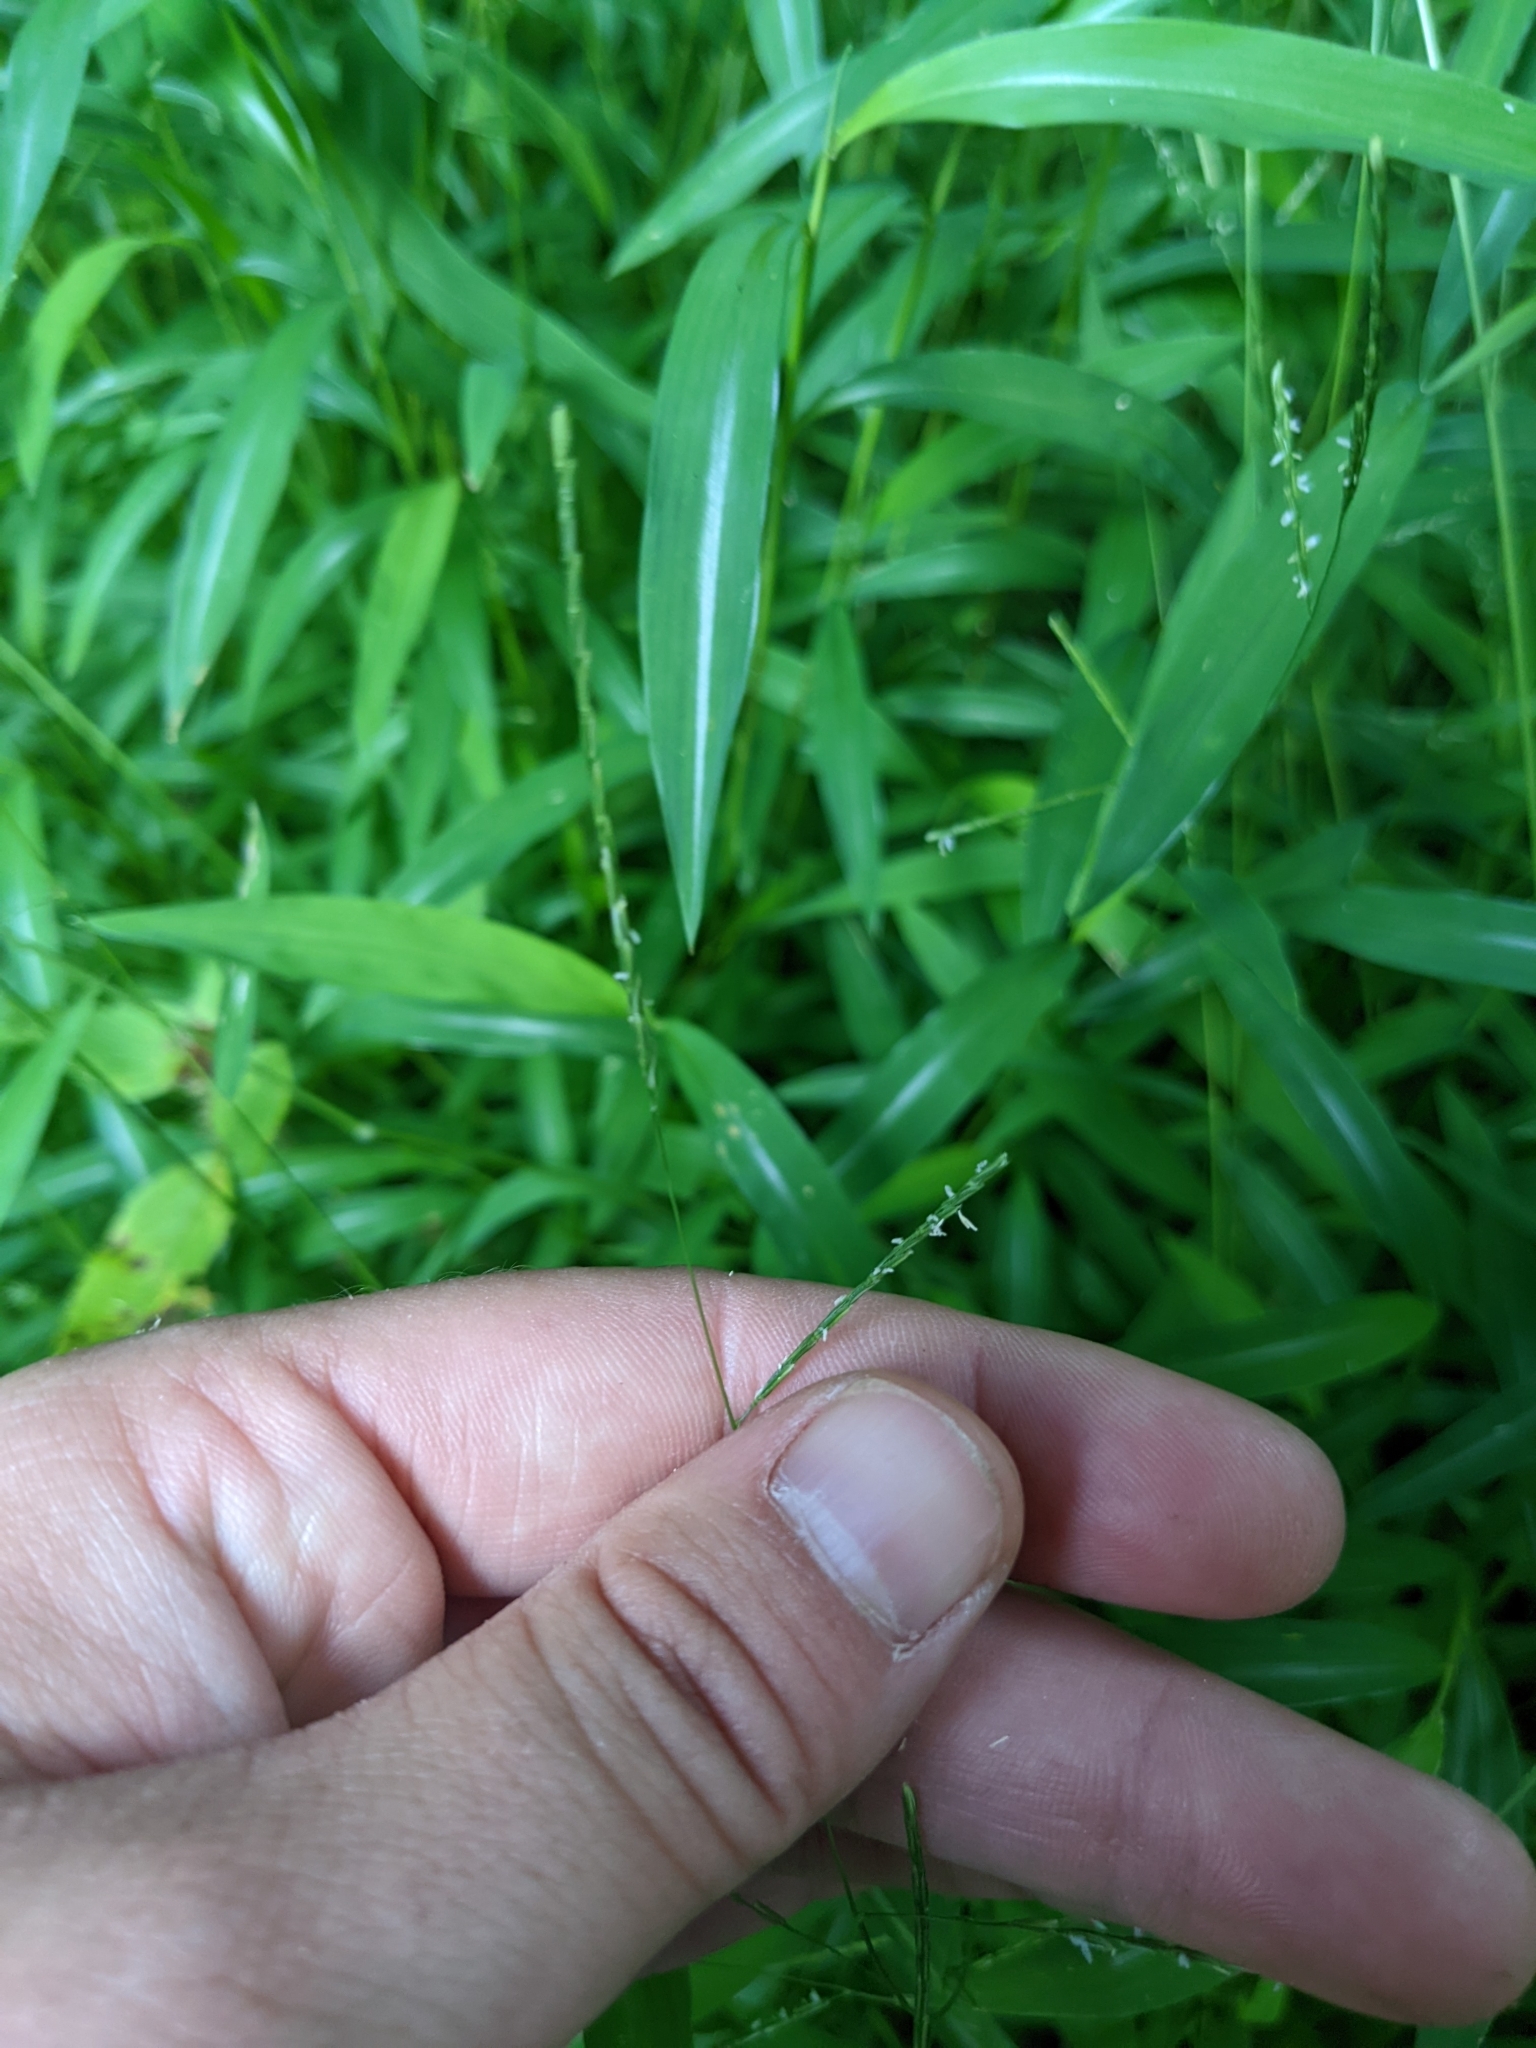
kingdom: Plantae
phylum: Tracheophyta
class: Liliopsida
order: Poales
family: Poaceae
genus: Microstegium
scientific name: Microstegium vimineum
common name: Japanese stiltgrass
